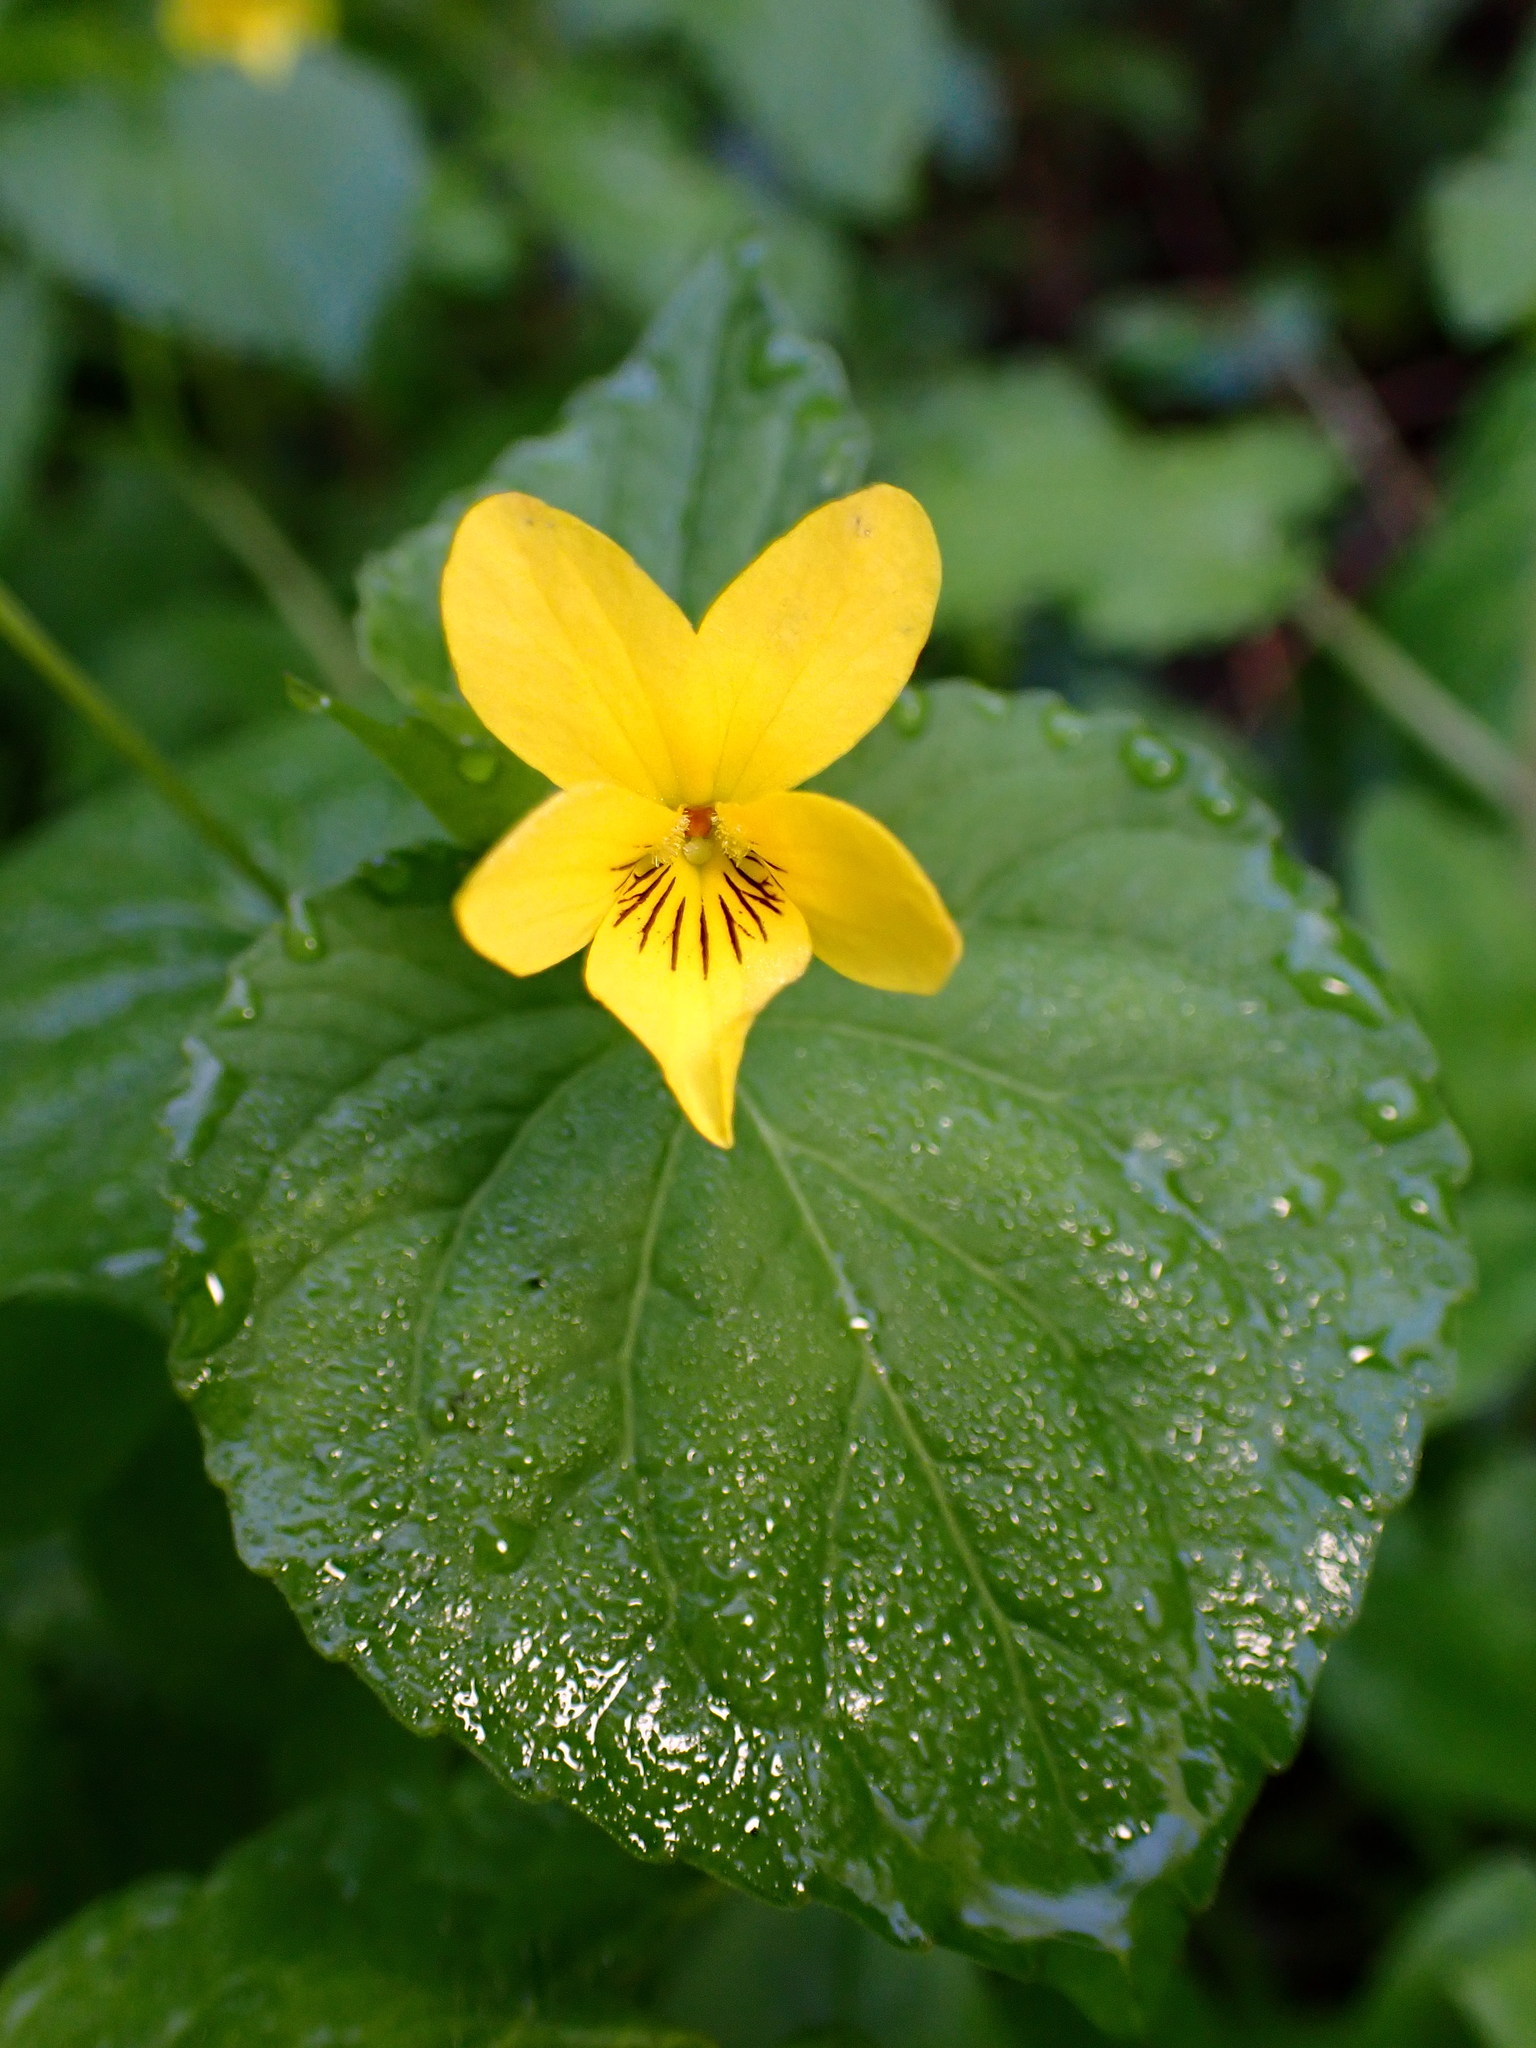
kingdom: Plantae
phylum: Tracheophyta
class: Magnoliopsida
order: Malpighiales
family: Violaceae
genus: Viola
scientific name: Viola glabella
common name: Stream violet
